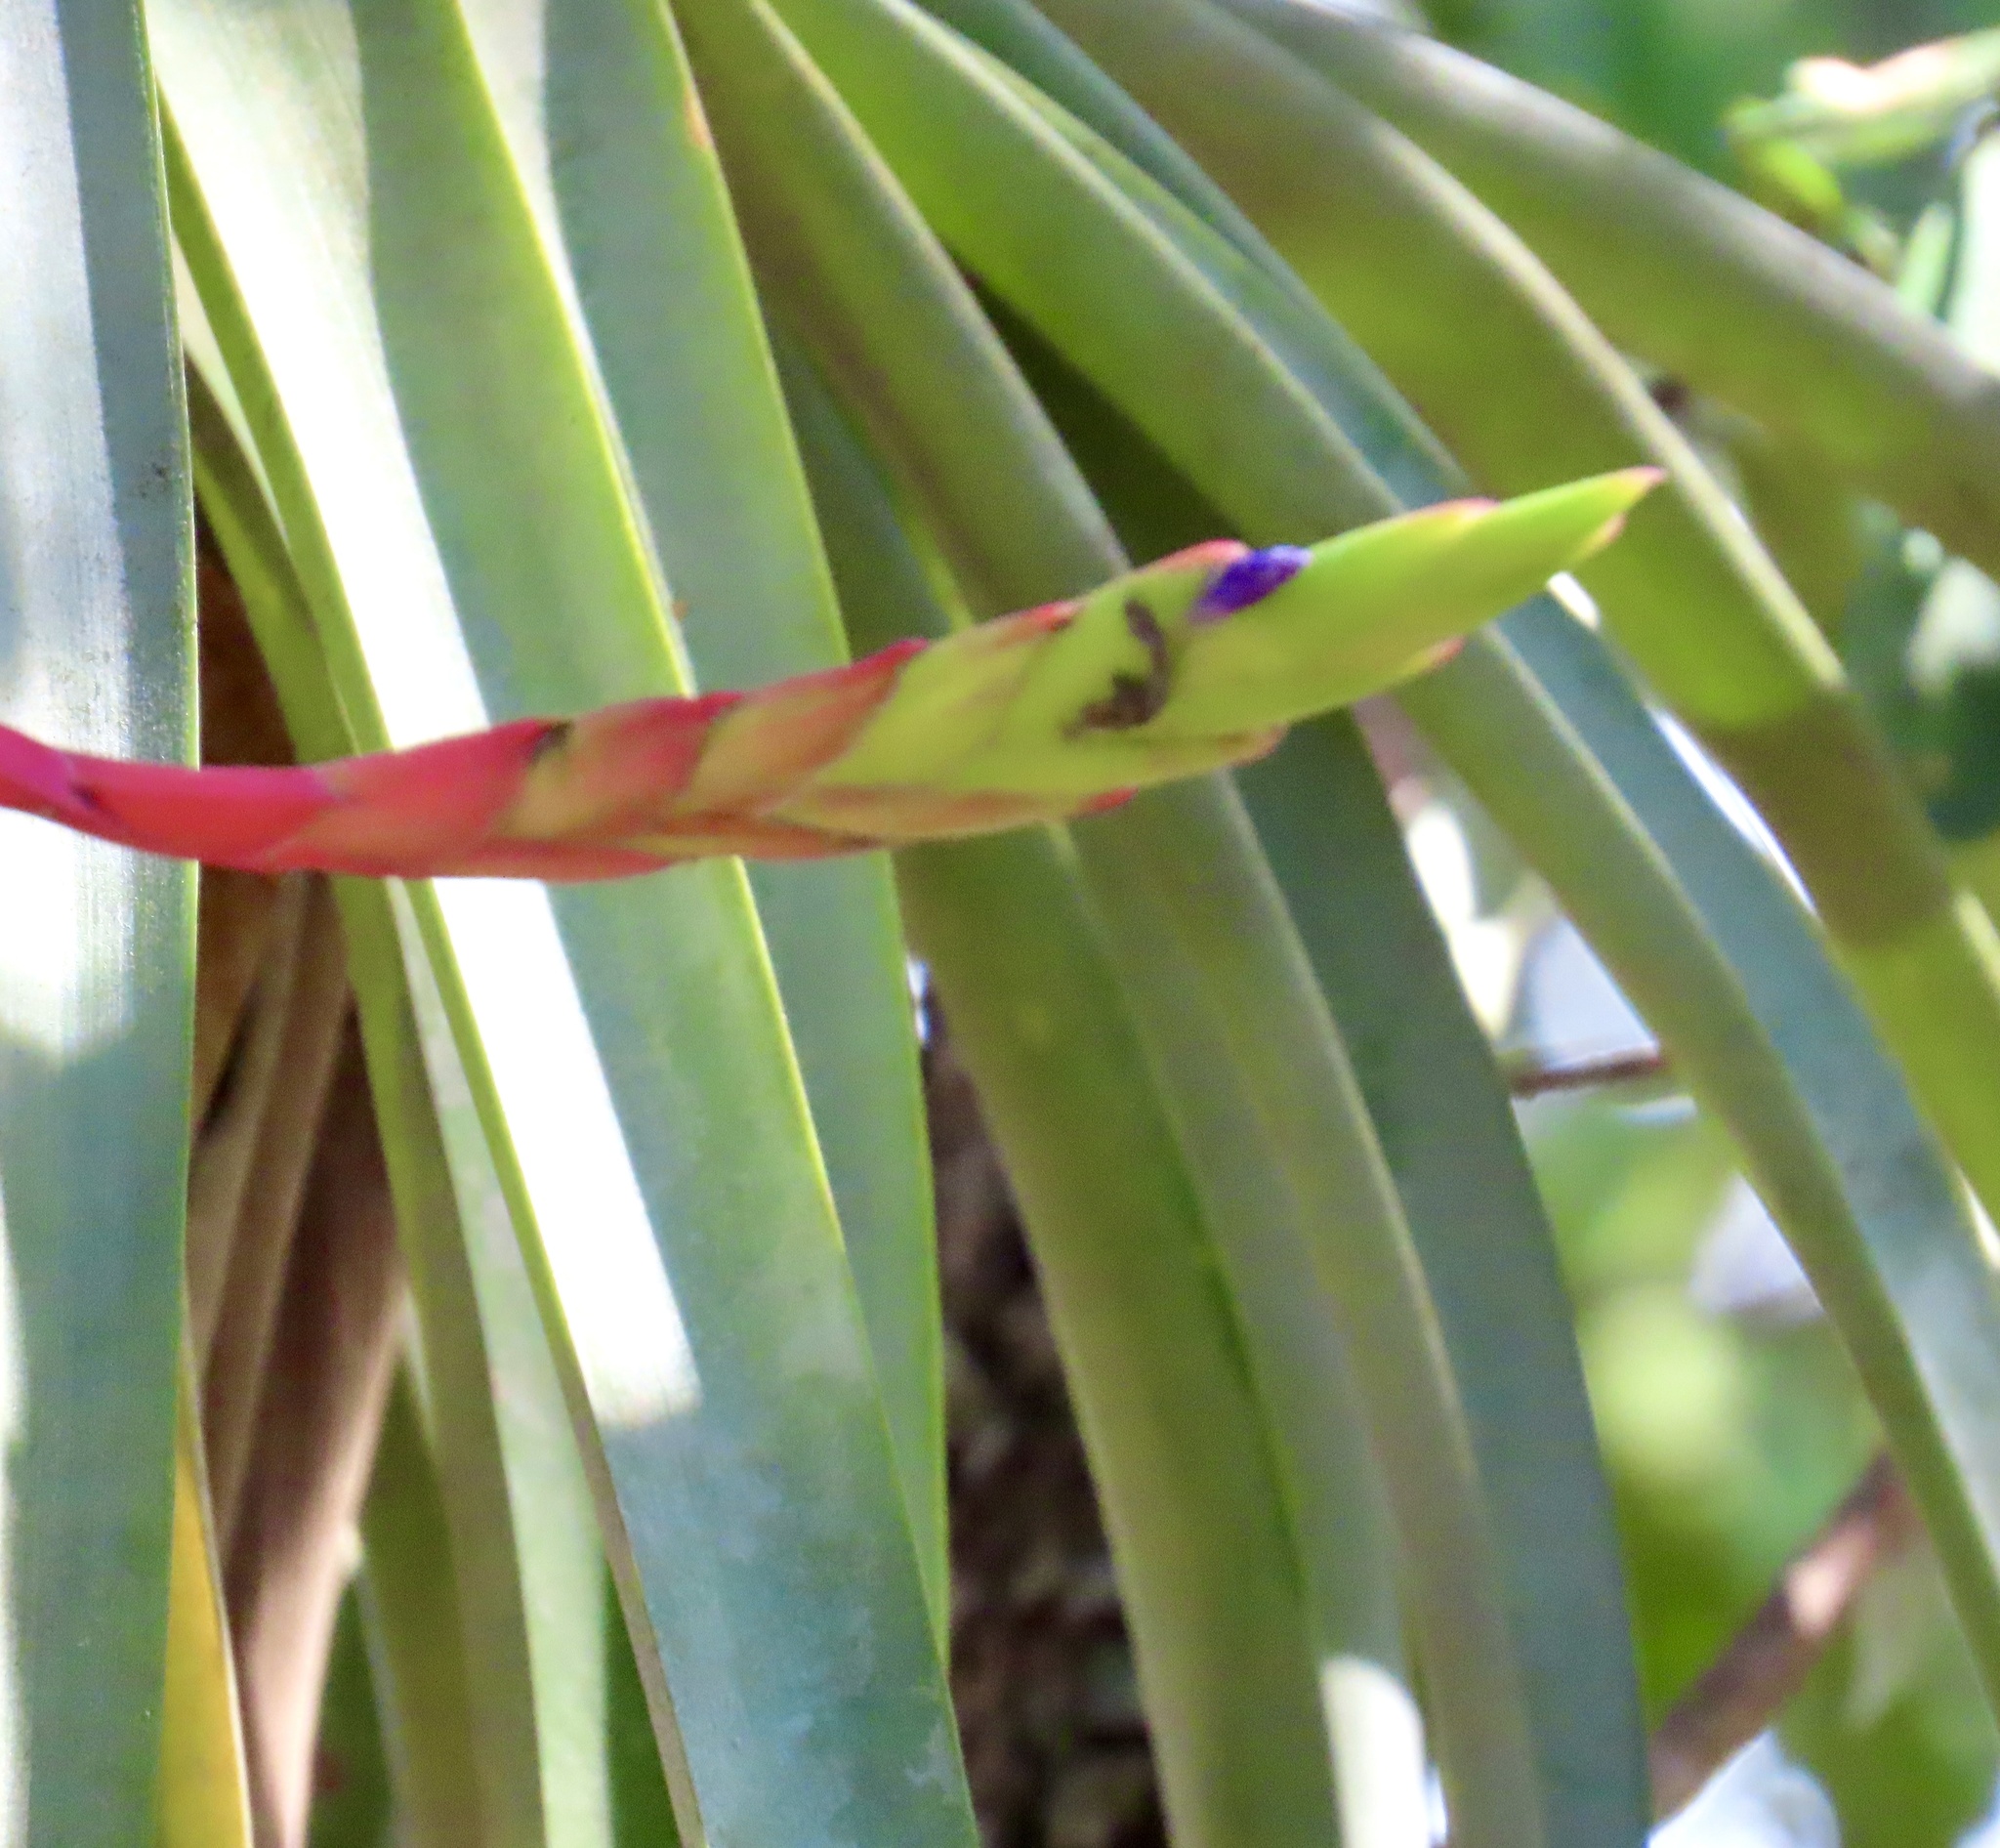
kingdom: Plantae
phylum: Tracheophyta
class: Liliopsida
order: Poales
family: Bromeliaceae
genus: Tillandsia
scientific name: Tillandsia fasciculata
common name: Giant airplant
